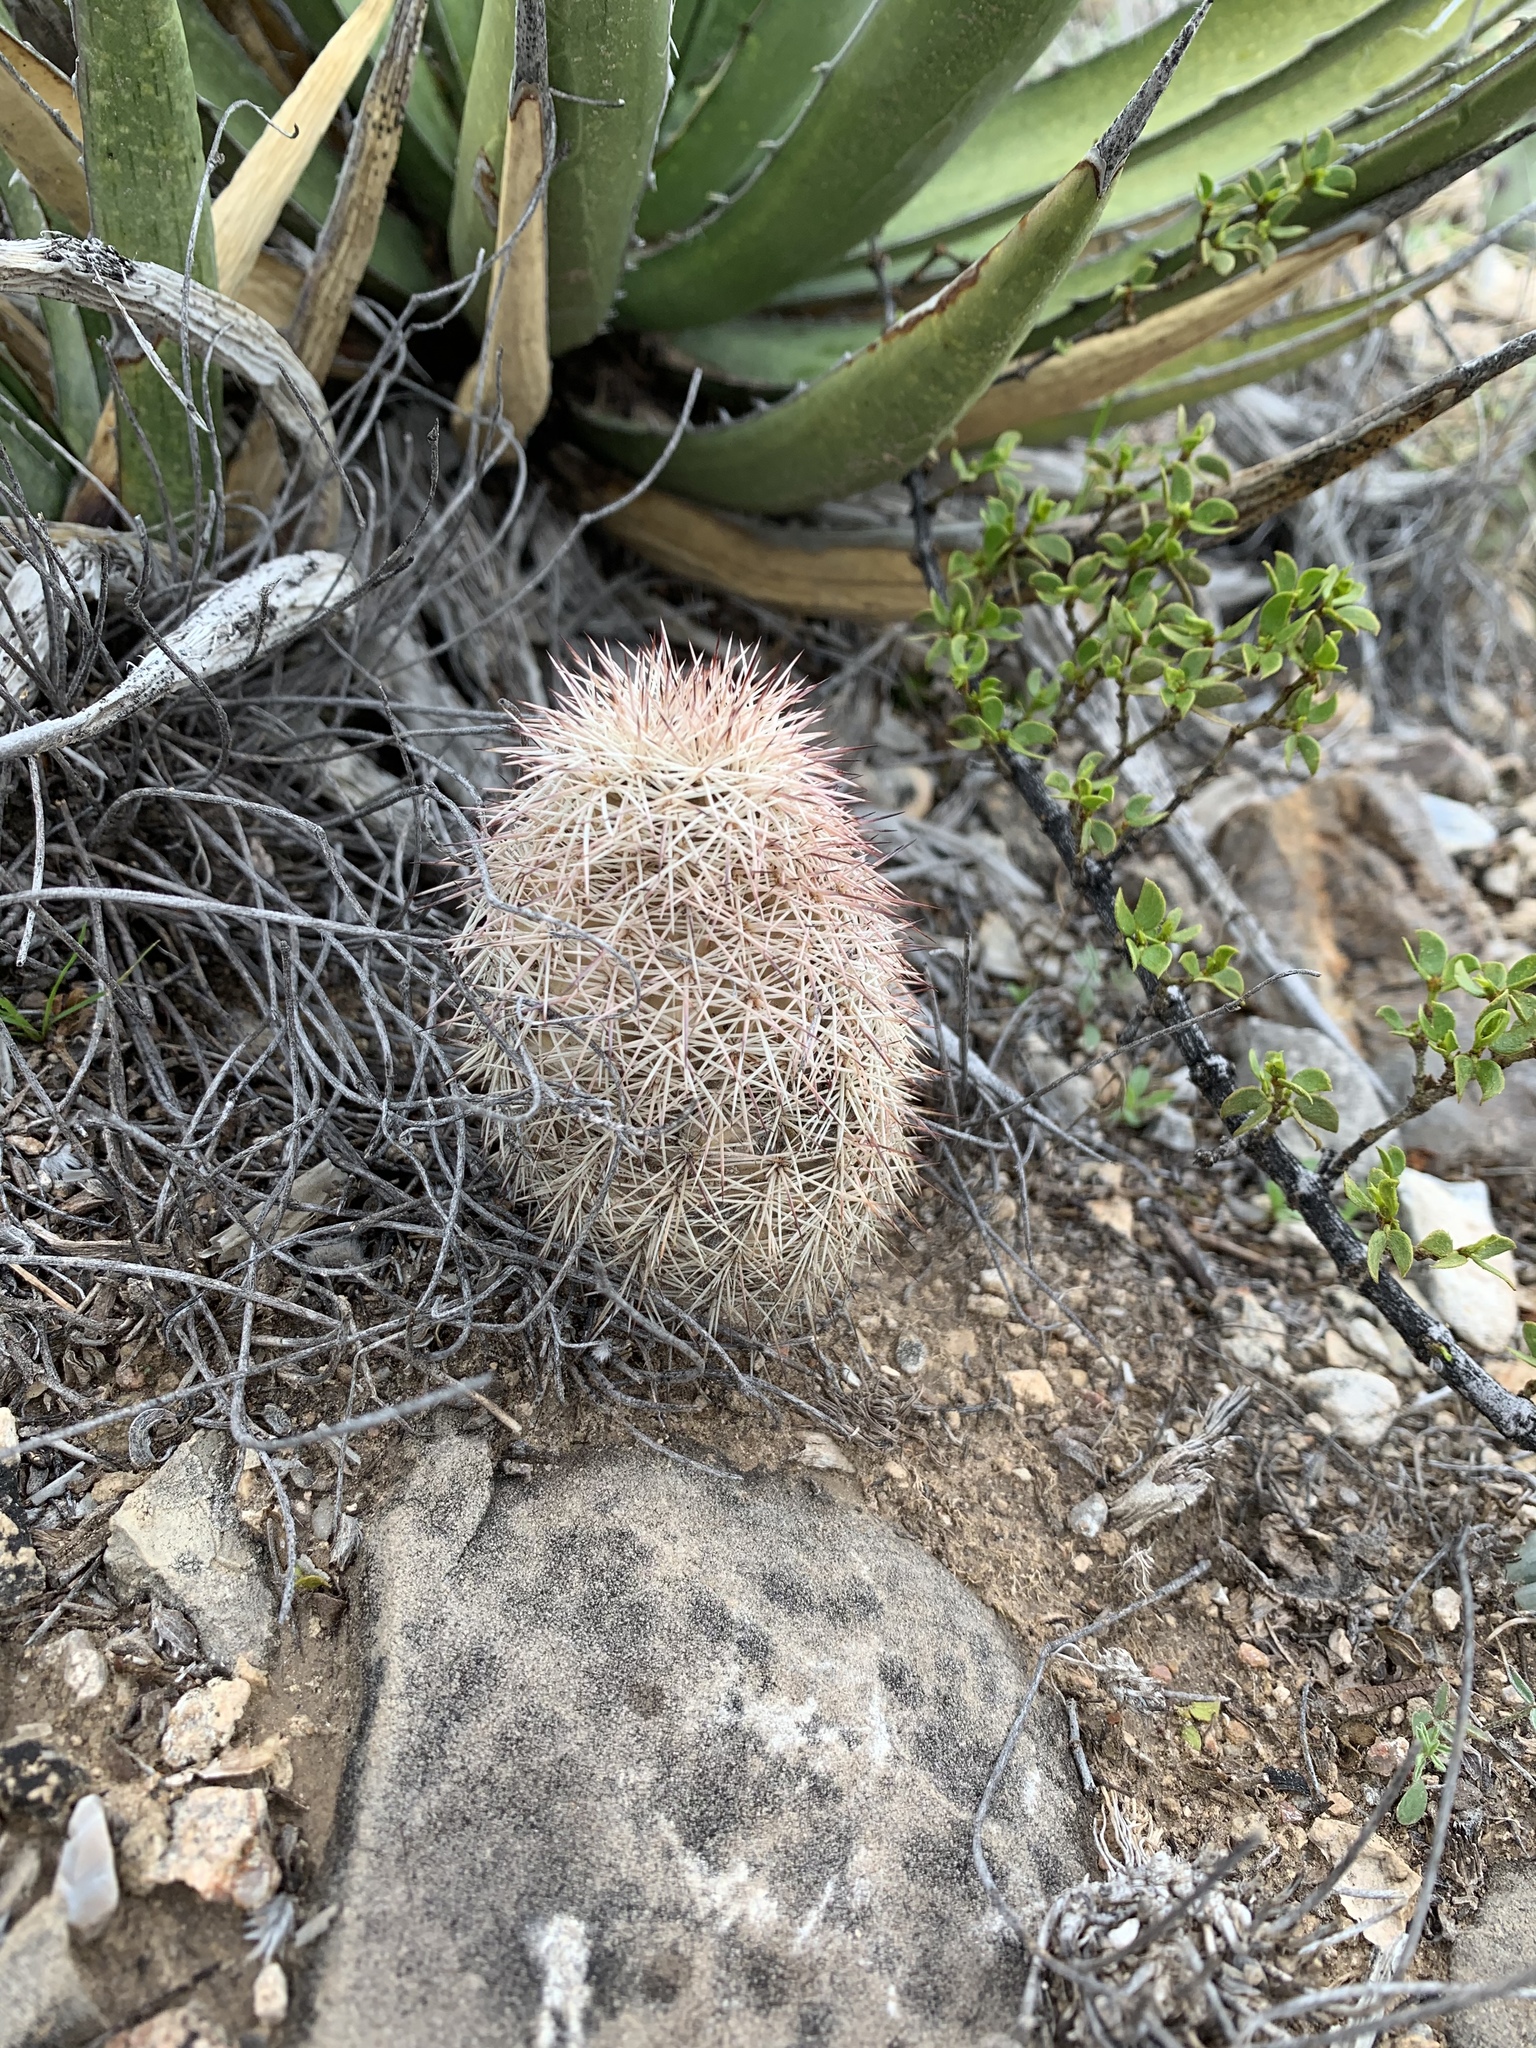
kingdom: Plantae
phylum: Tracheophyta
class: Magnoliopsida
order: Caryophyllales
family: Cactaceae
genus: Echinocereus
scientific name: Echinocereus dasyacanthus
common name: Spiny hedgehog cactus
